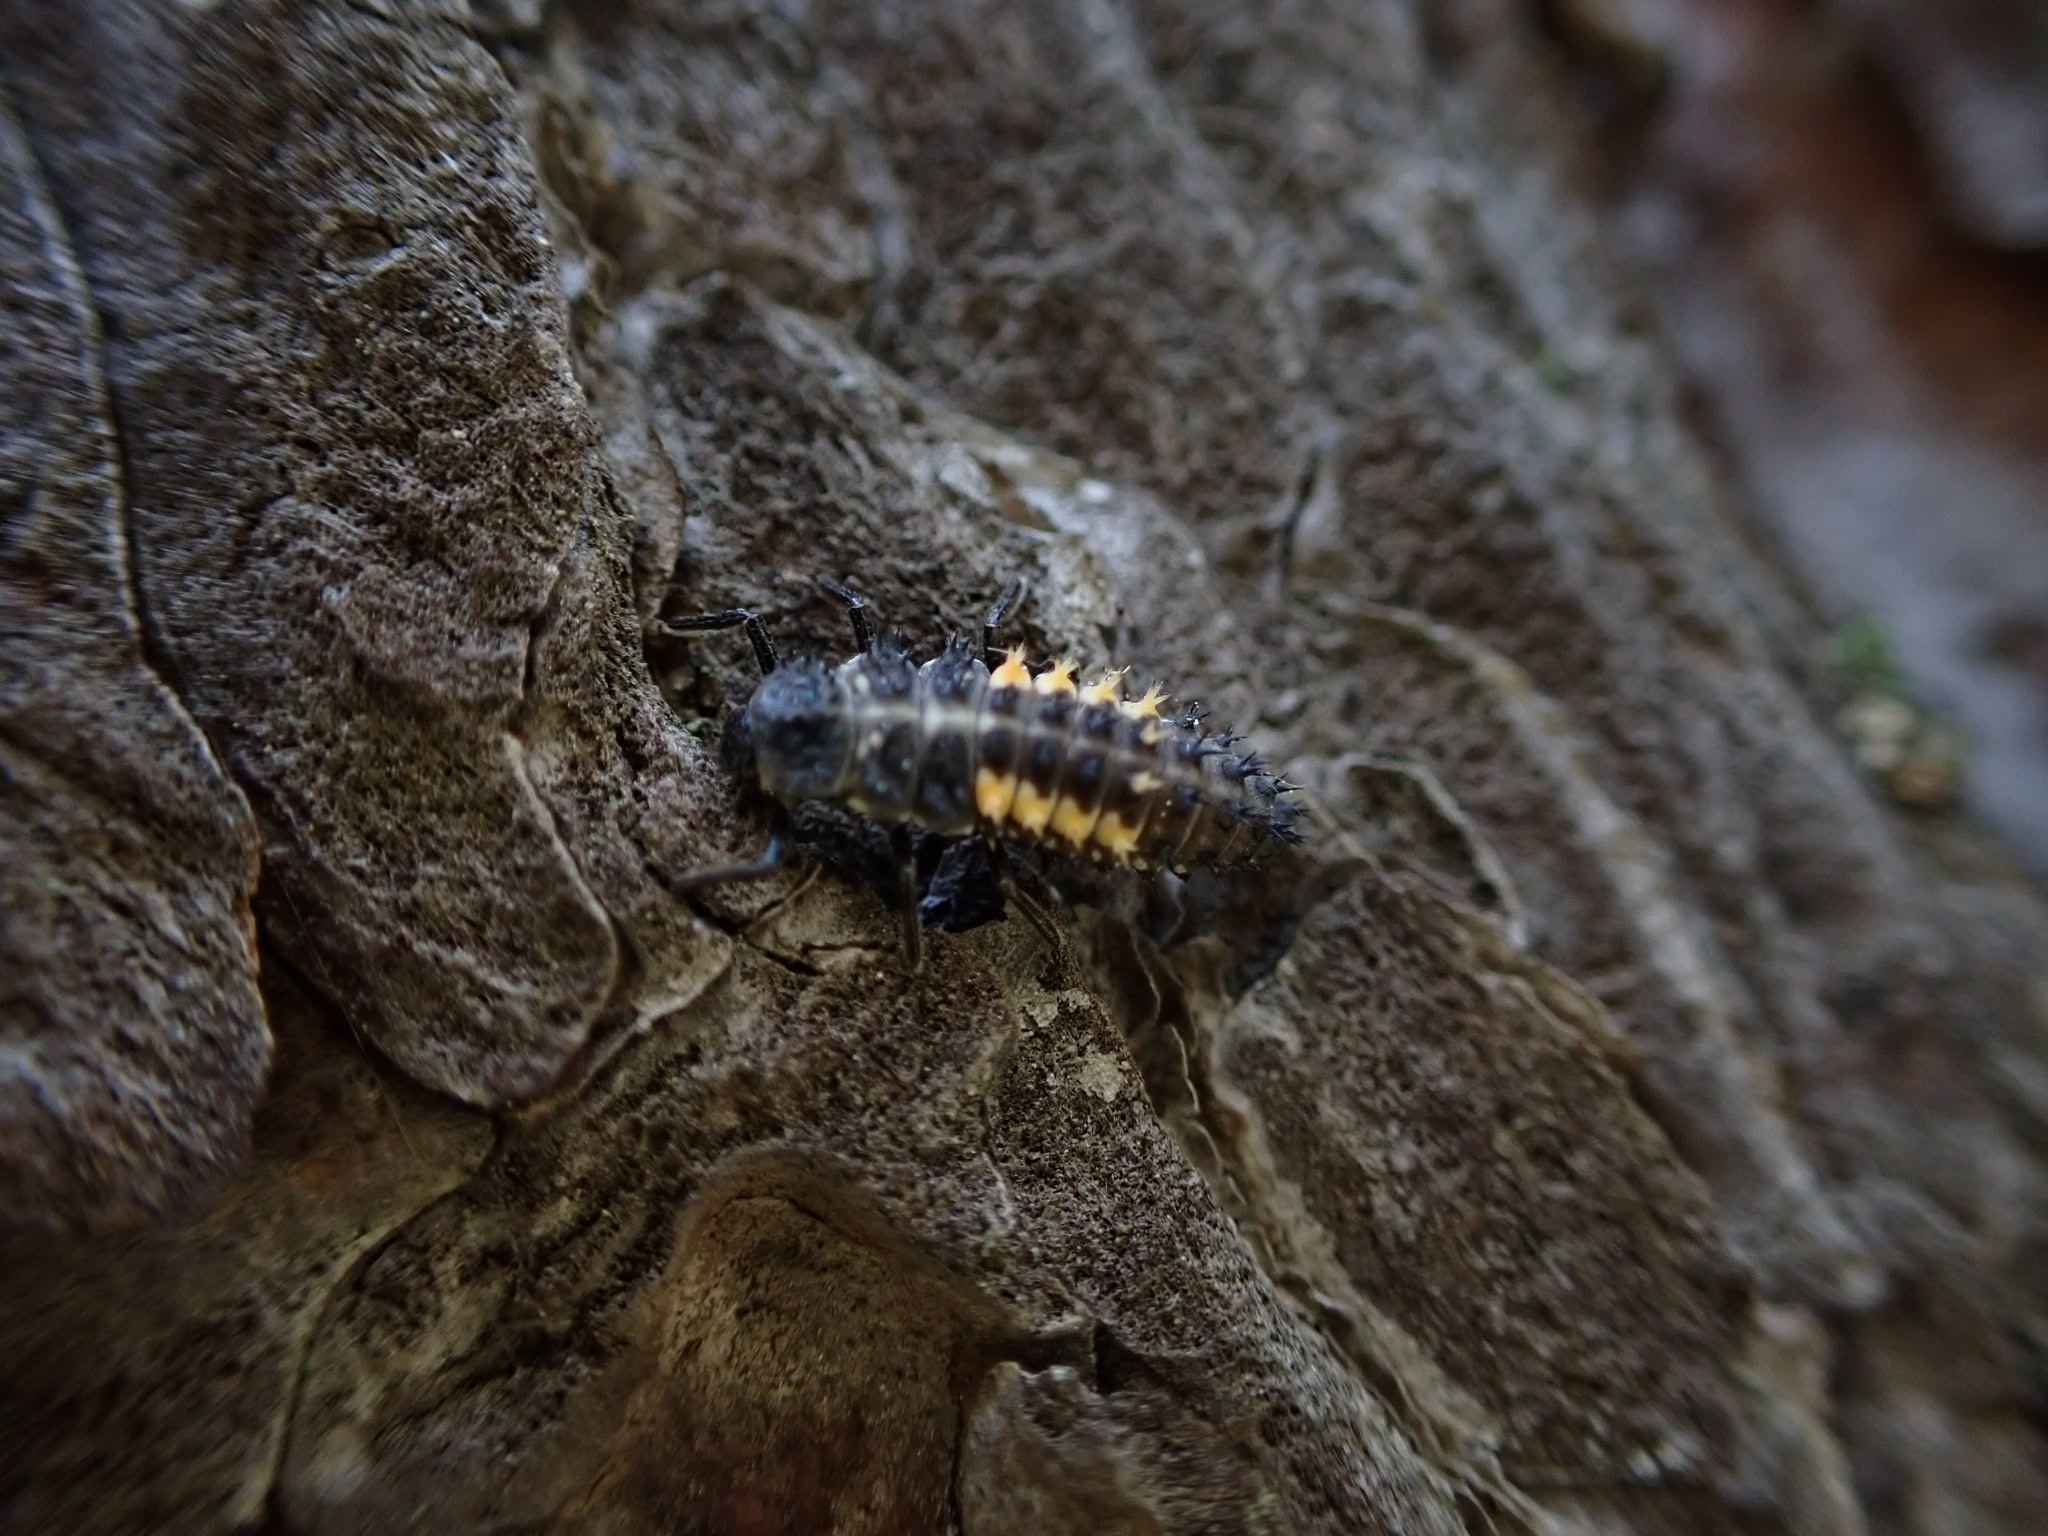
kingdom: Animalia
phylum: Arthropoda
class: Insecta
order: Coleoptera
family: Coccinellidae
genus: Harmonia
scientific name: Harmonia quadripunctata
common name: Cream-streaked ladybird
